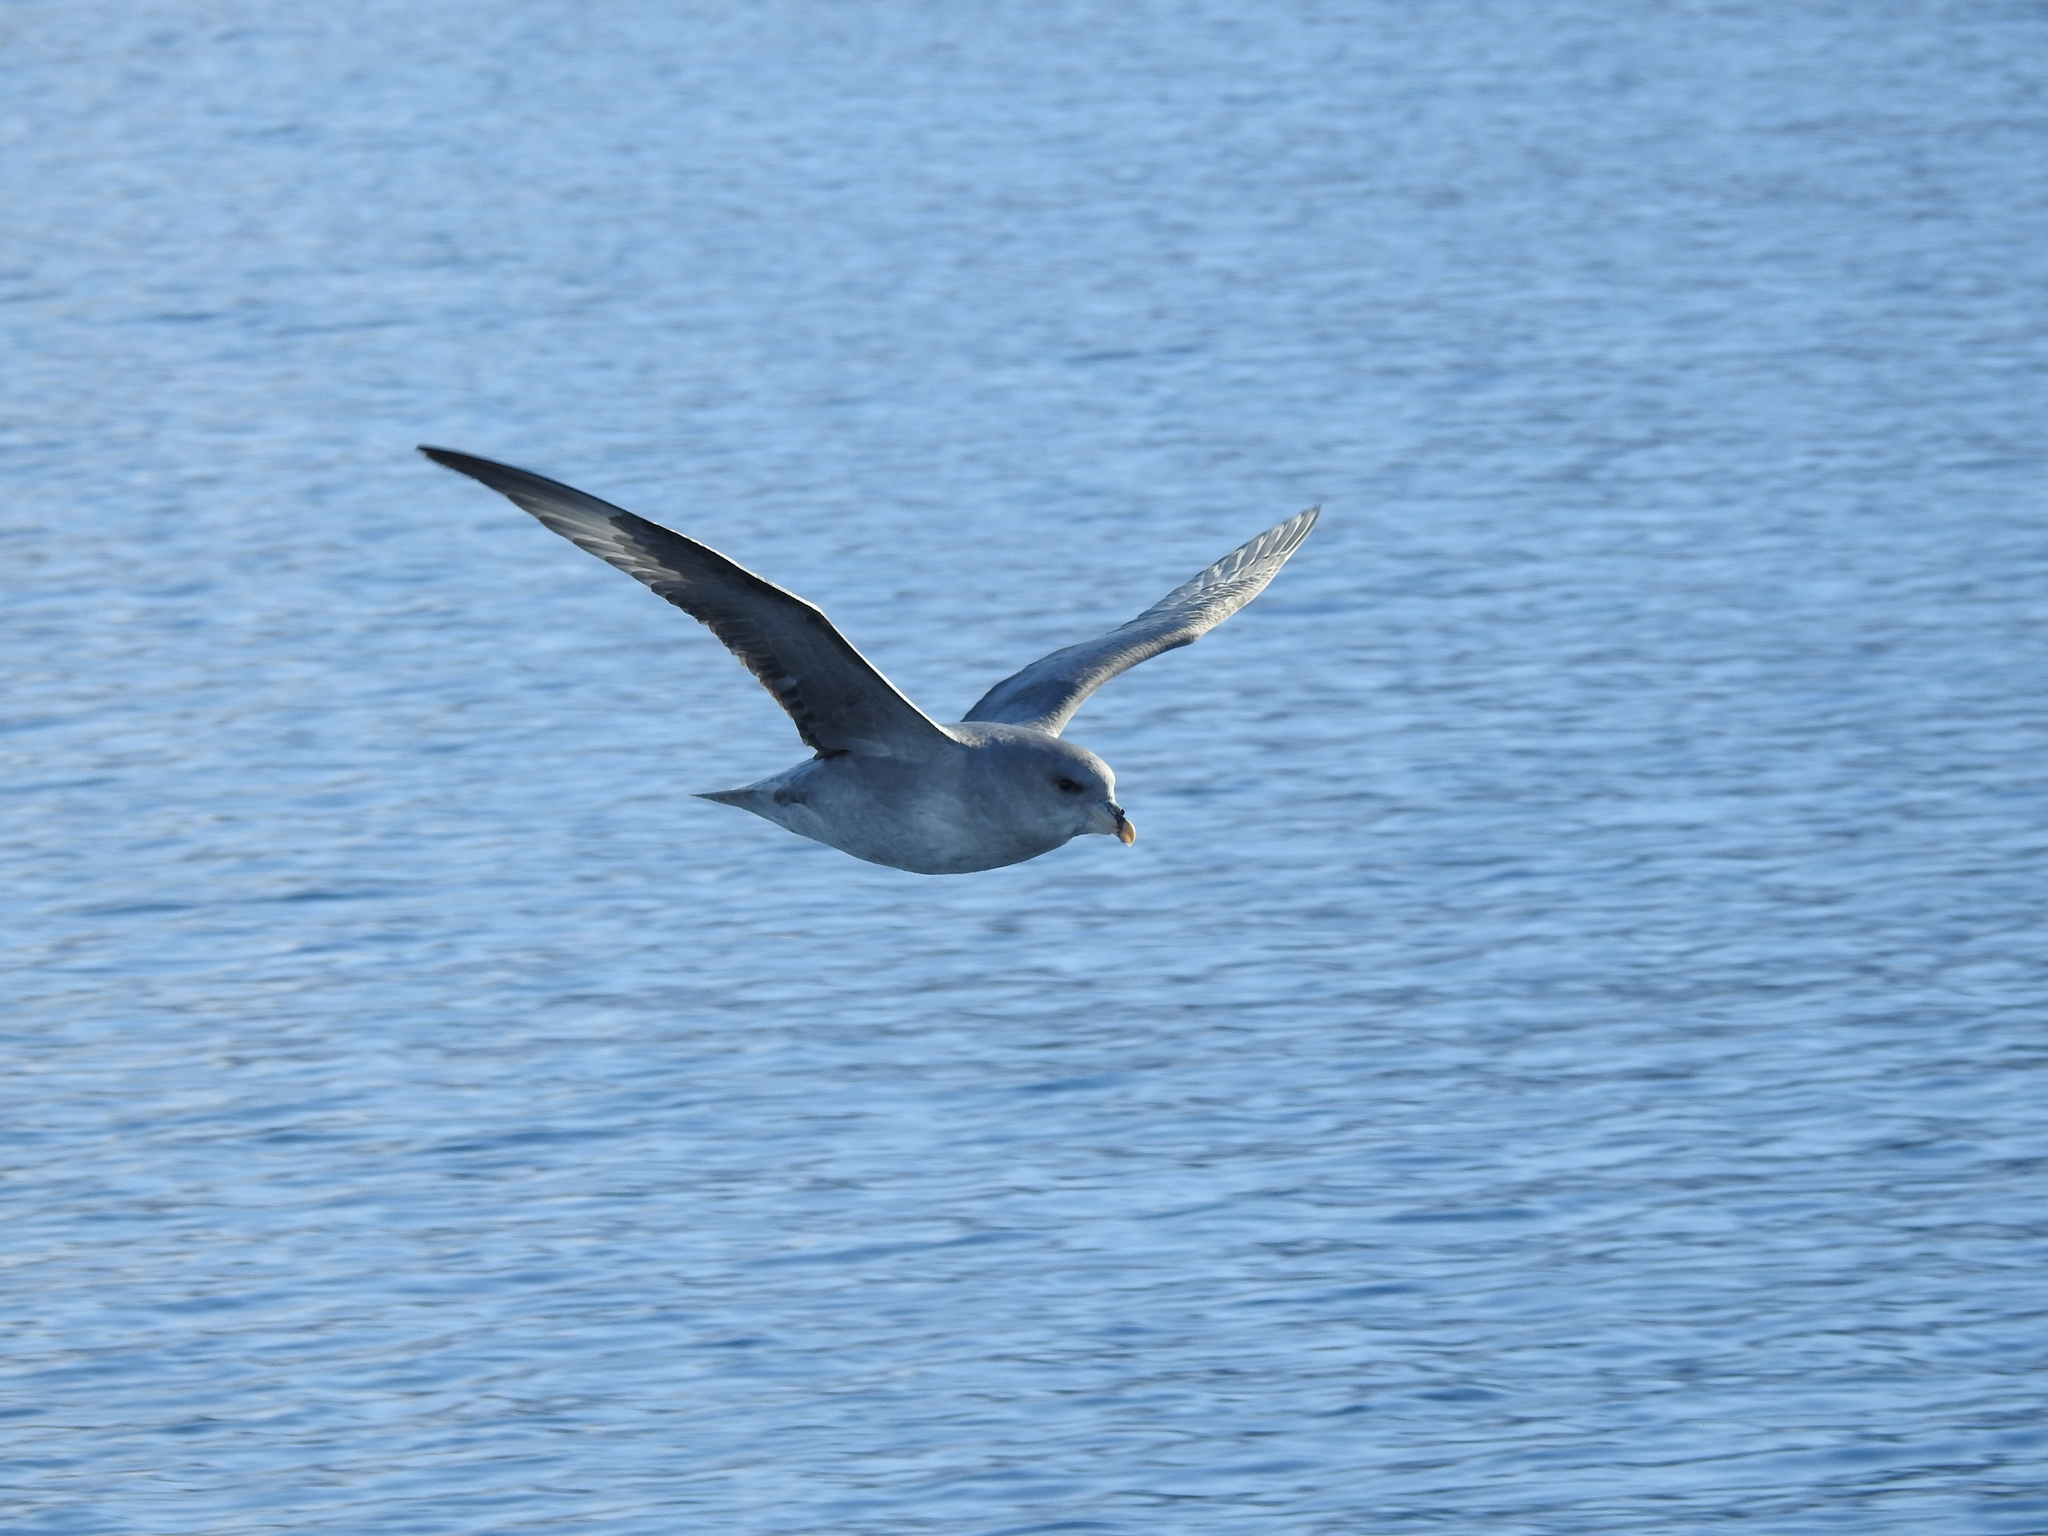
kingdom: Animalia
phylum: Chordata
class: Aves
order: Procellariiformes
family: Procellariidae
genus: Fulmarus
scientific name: Fulmarus glacialis
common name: Northern fulmar
